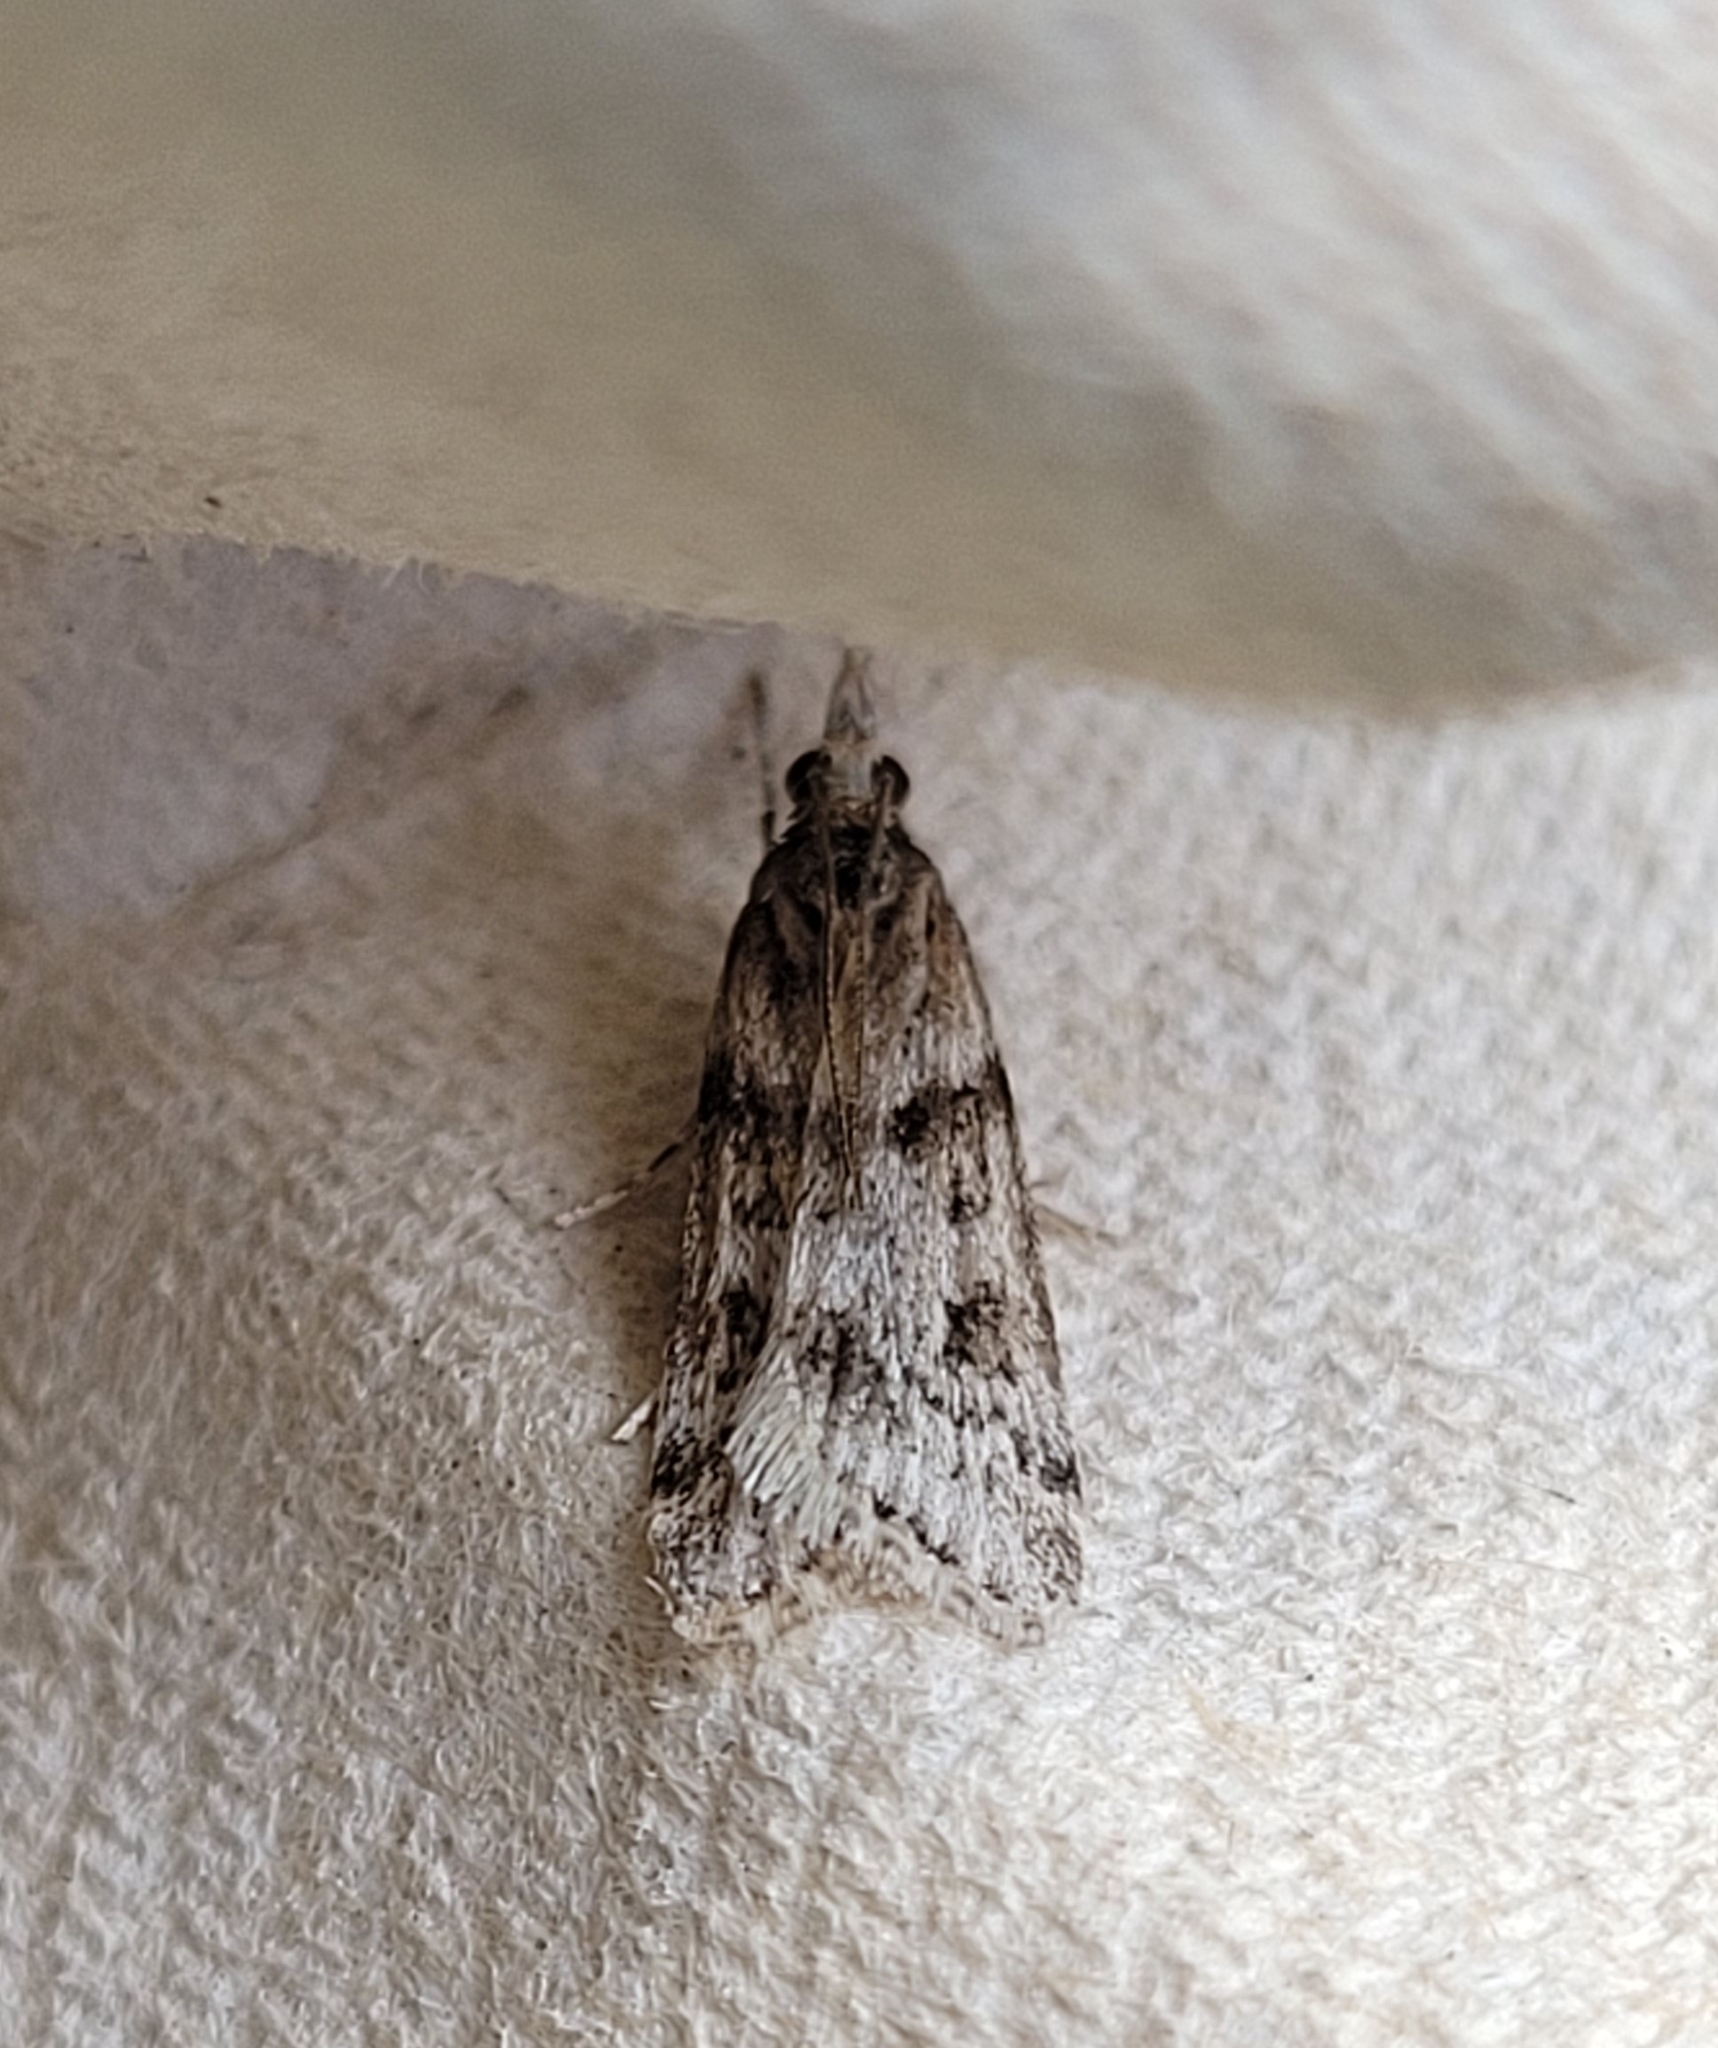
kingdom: Animalia
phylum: Arthropoda
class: Insecta
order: Lepidoptera
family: Crambidae
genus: Eudonia
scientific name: Eudonia angustea
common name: Narrow-winged grey
